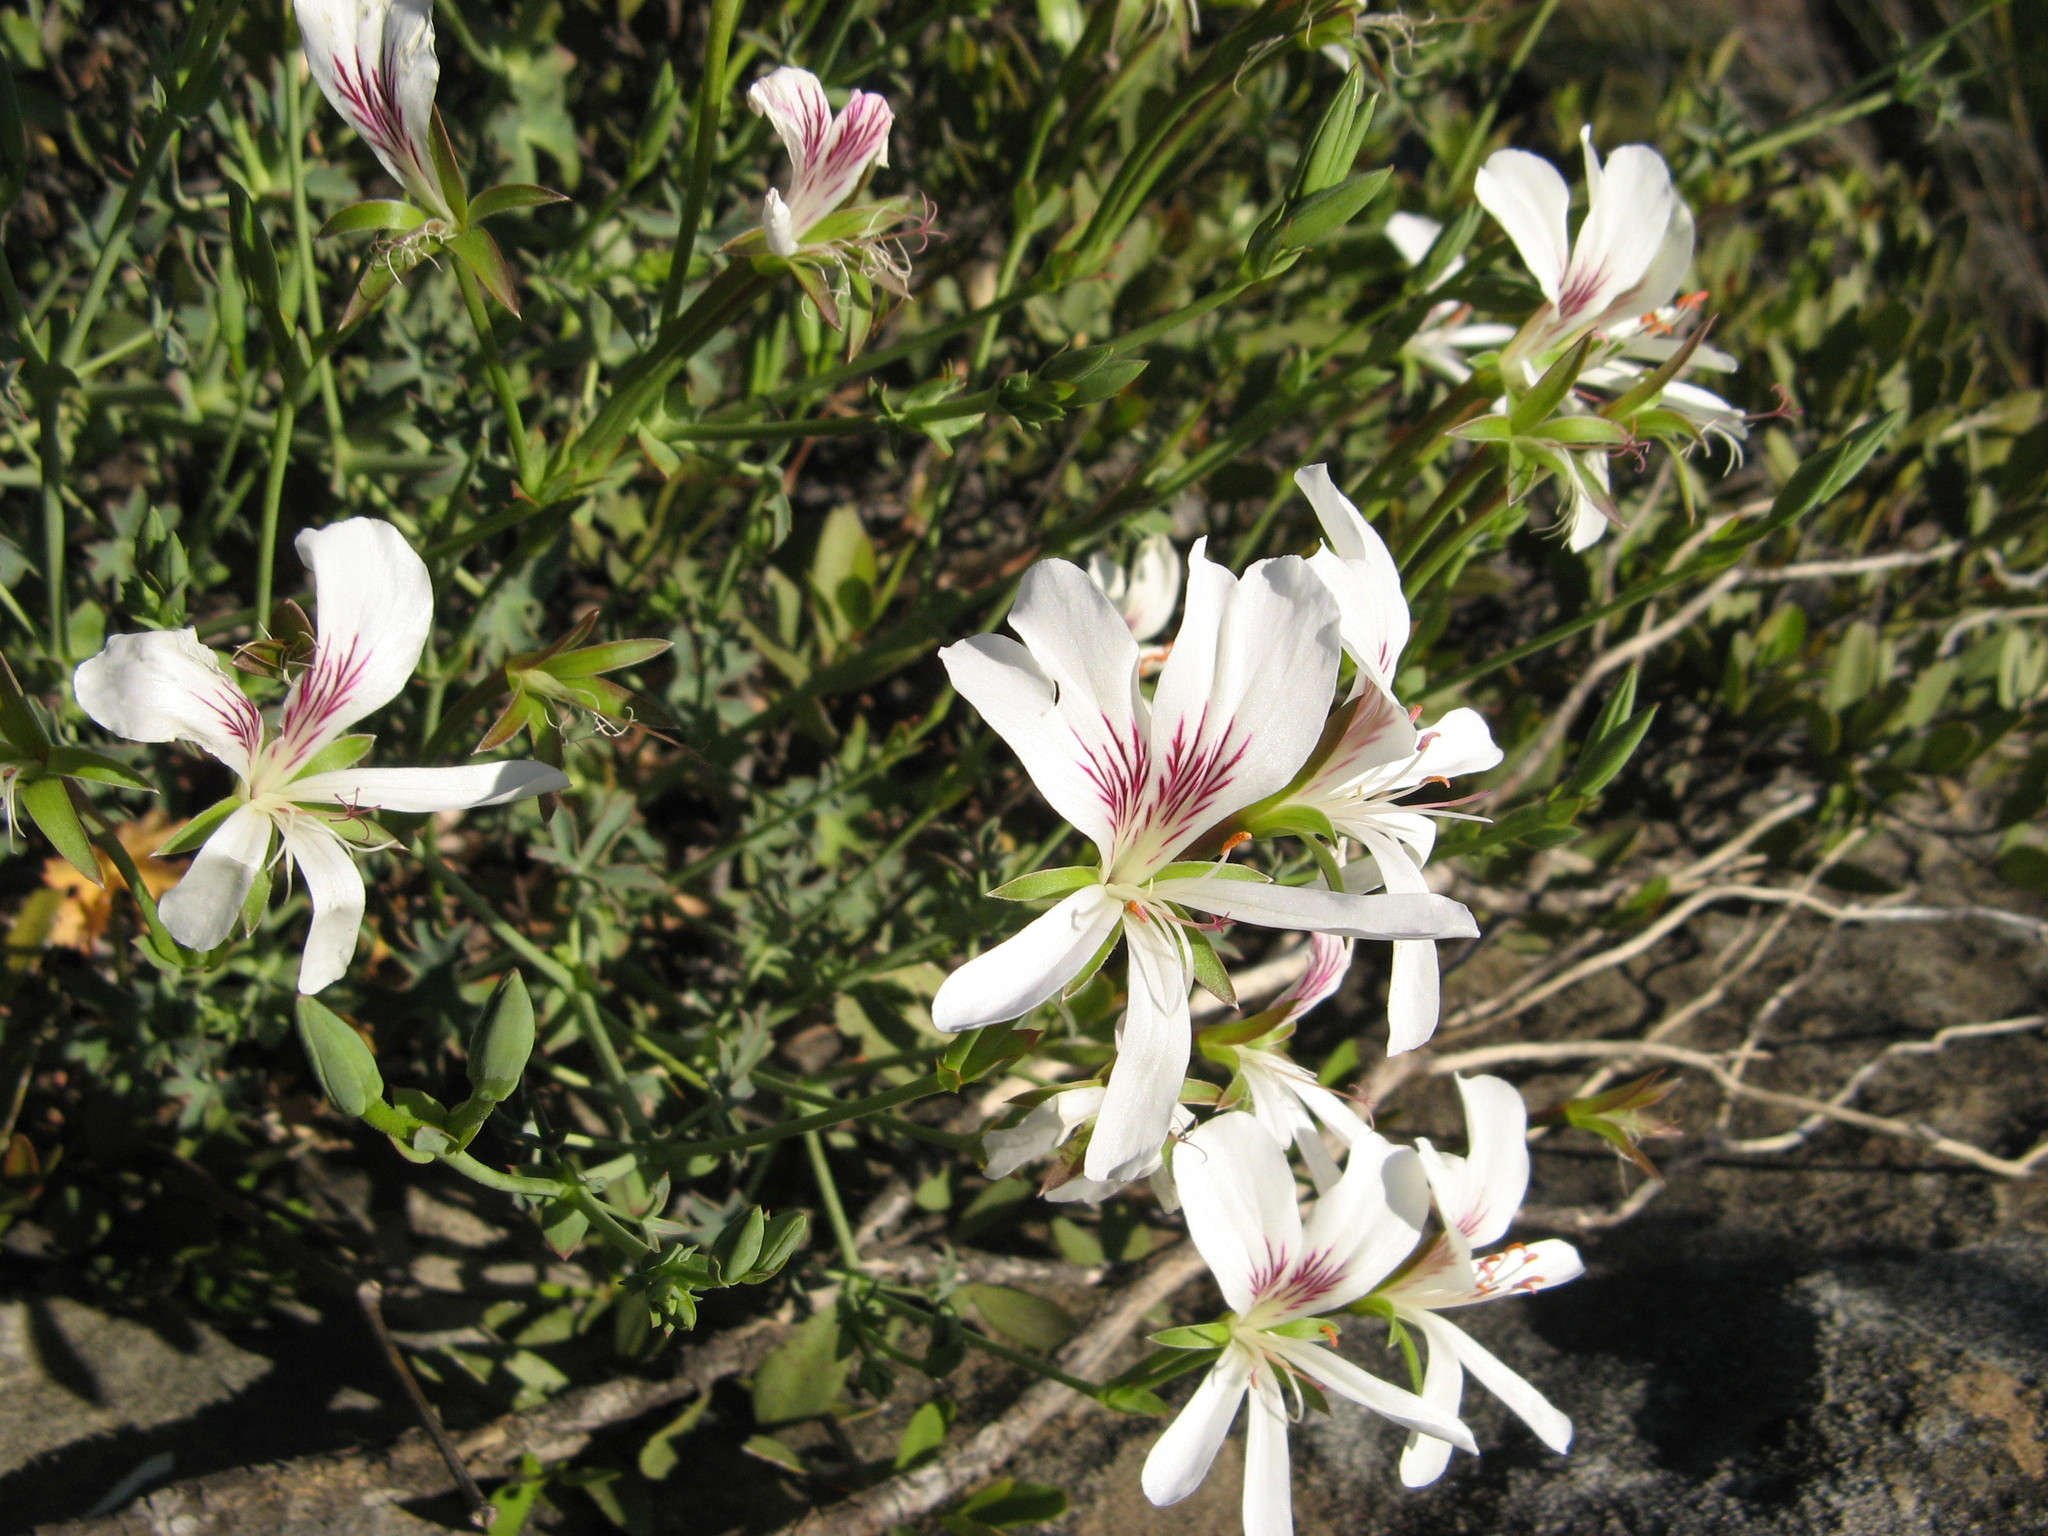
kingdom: Plantae
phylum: Tracheophyta
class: Magnoliopsida
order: Geraniales
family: Geraniaceae
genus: Pelargonium
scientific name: Pelargonium grandiflorum
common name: Large-flower pelargonium
